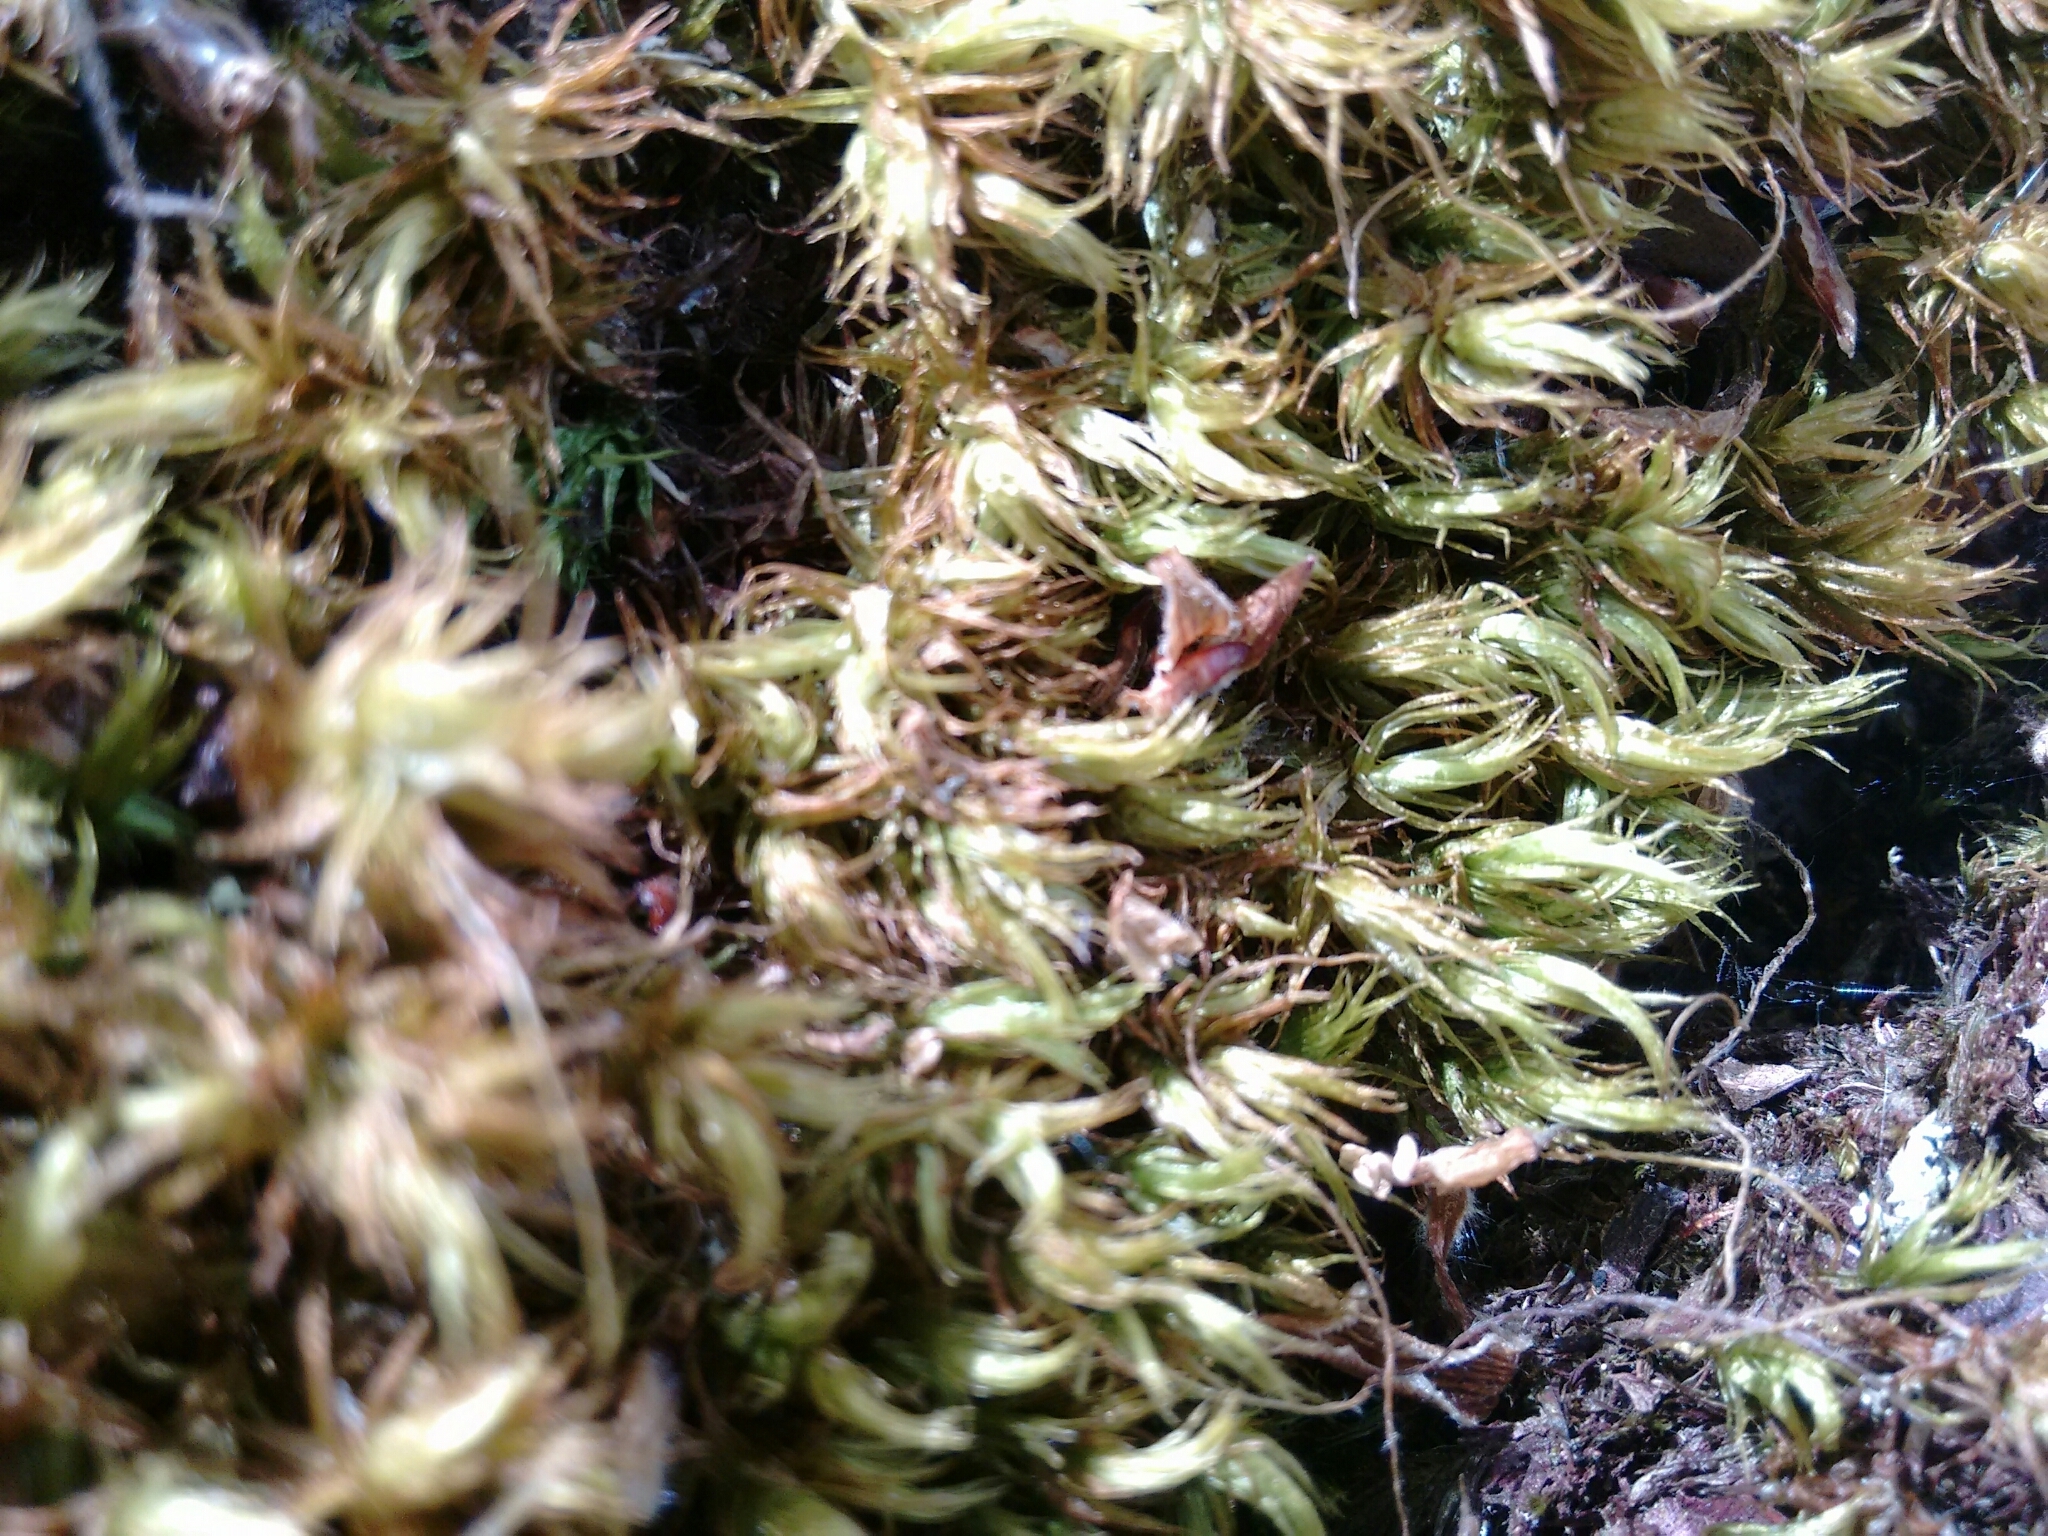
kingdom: Plantae
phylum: Bryophyta
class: Bryopsida
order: Dicranales
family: Dicranaceae
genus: Dicranum
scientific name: Dicranum scoparium
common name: Broom fork-moss
